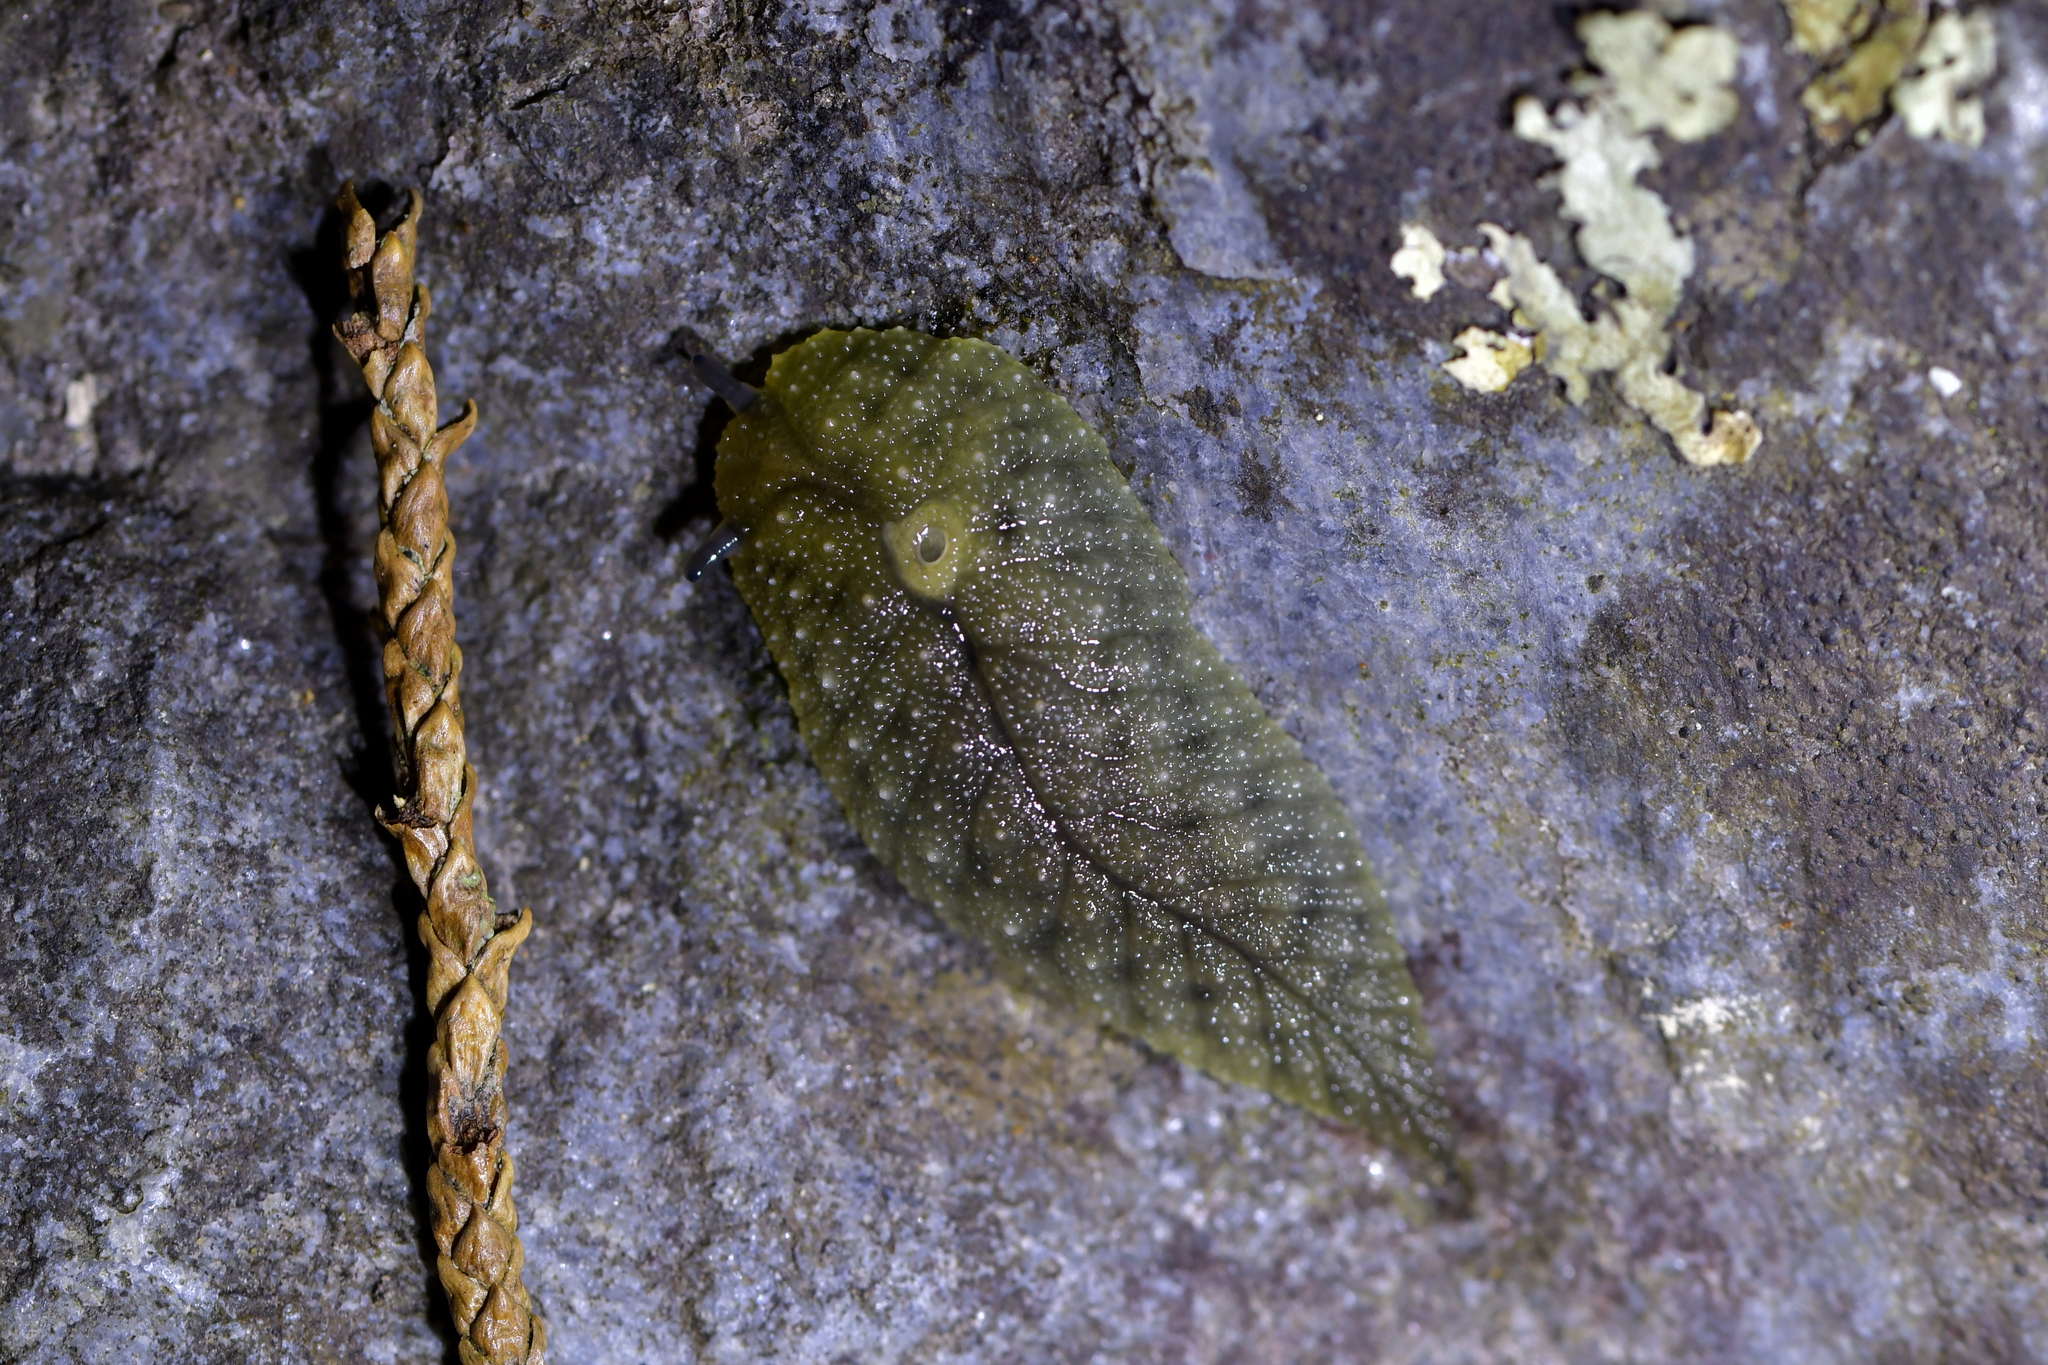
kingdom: Animalia
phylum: Mollusca
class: Gastropoda
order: Stylommatophora
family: Athoracophoridae
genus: Athoracophorus
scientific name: Athoracophorus papillatus
